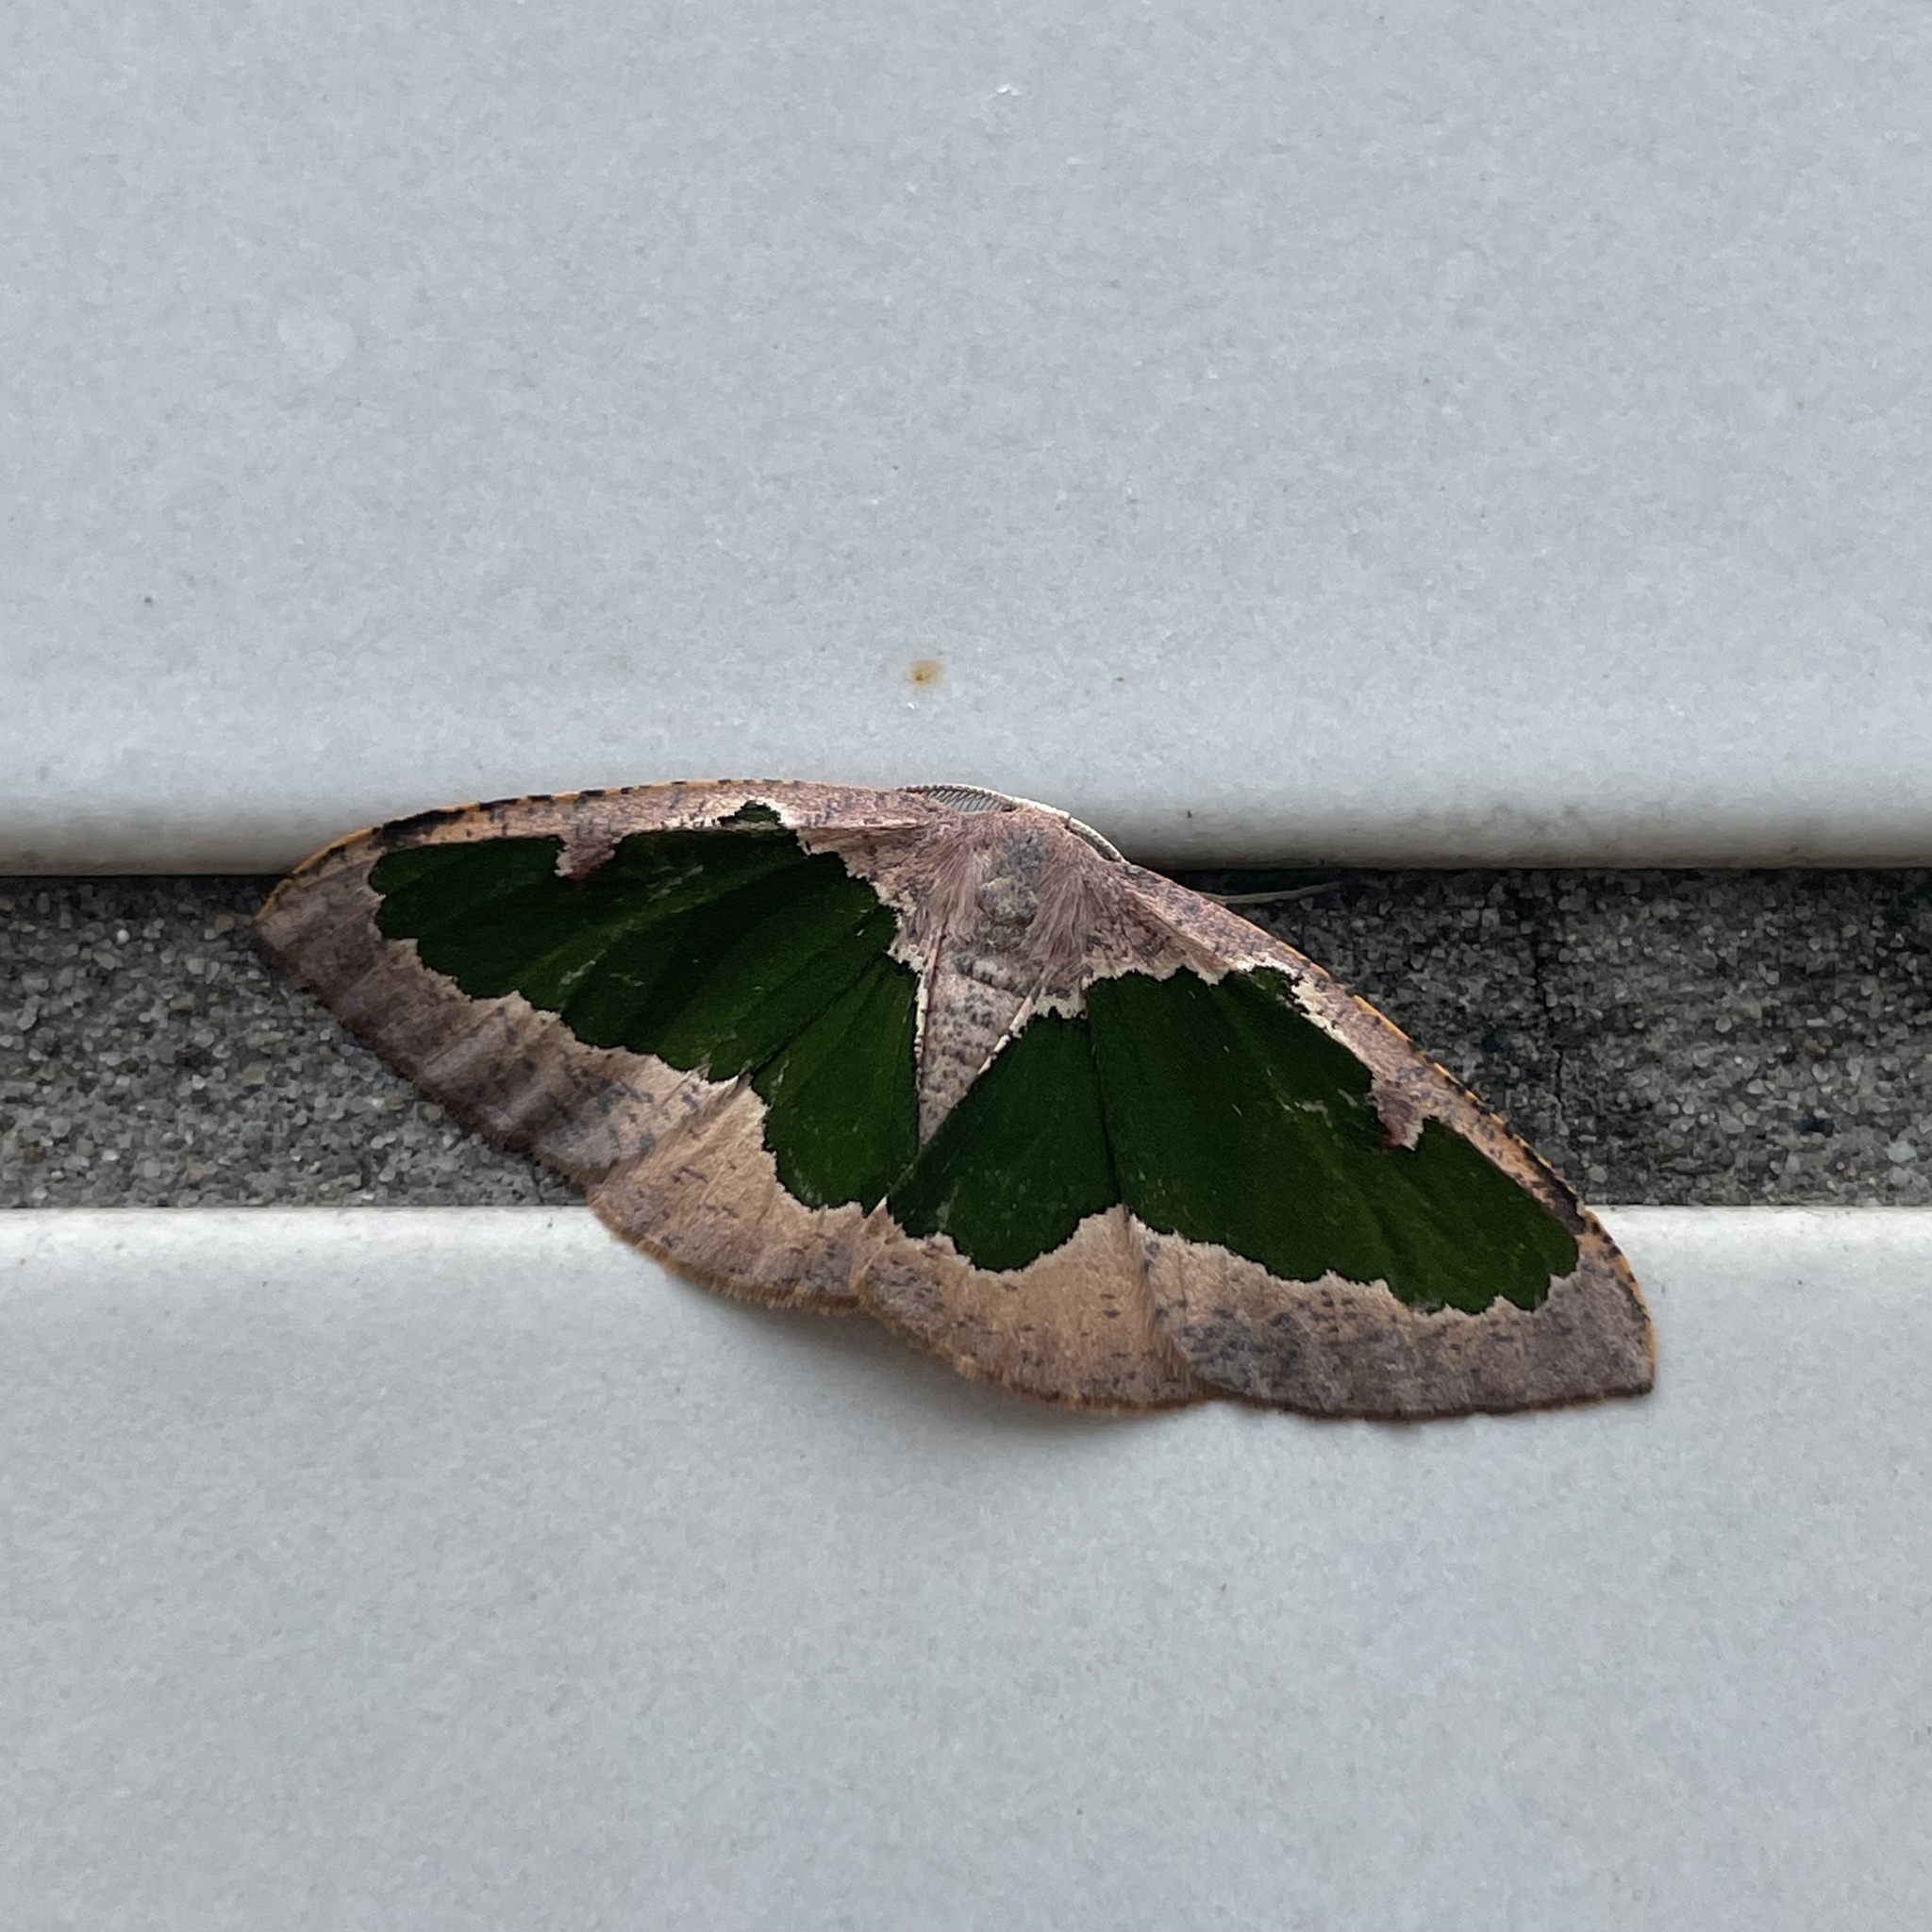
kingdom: Animalia
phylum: Arthropoda
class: Insecta
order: Lepidoptera
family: Geometridae
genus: Celenna
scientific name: Celenna festivaria
